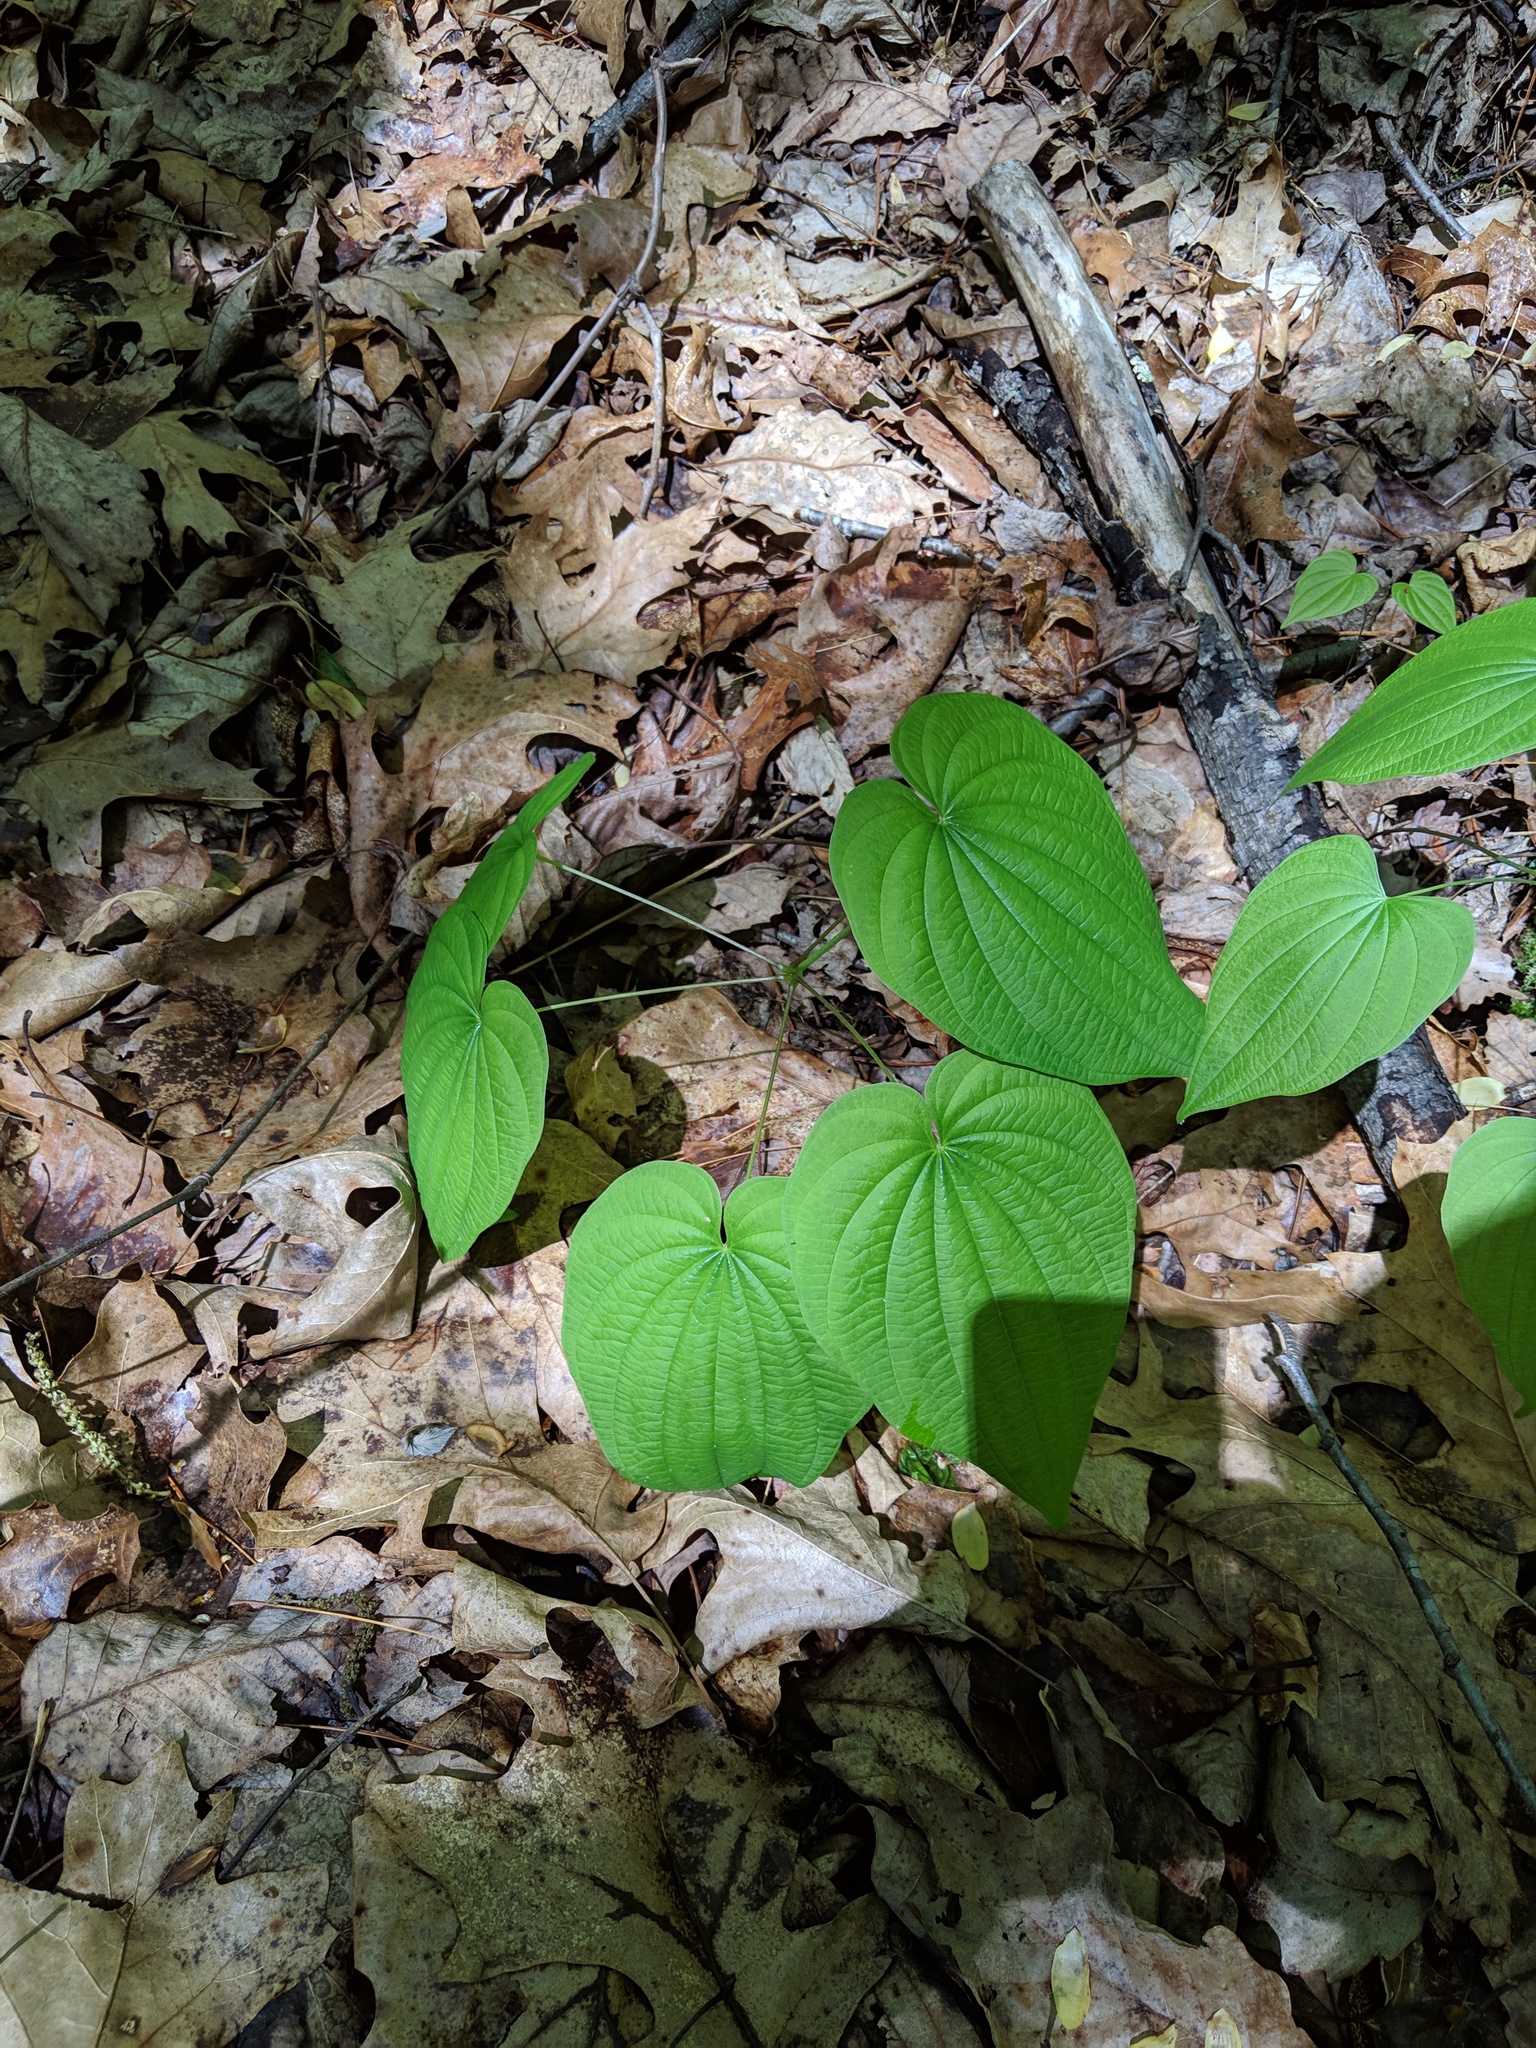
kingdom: Plantae
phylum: Tracheophyta
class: Liliopsida
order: Dioscoreales
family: Dioscoreaceae
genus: Dioscorea
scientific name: Dioscorea villosa
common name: Wild yam
